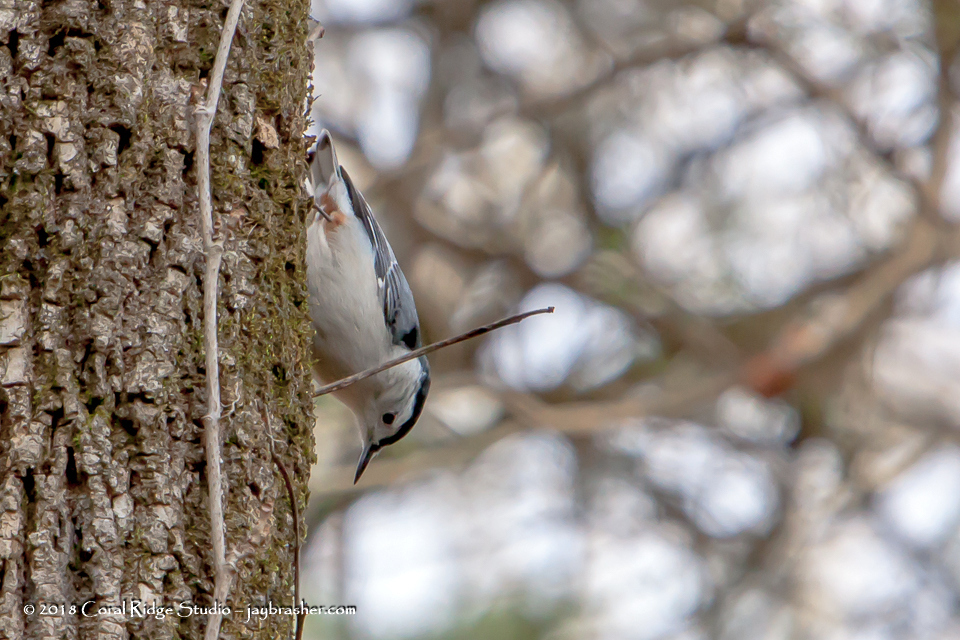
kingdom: Animalia
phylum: Chordata
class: Aves
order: Passeriformes
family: Sittidae
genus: Sitta
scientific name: Sitta carolinensis
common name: White-breasted nuthatch
